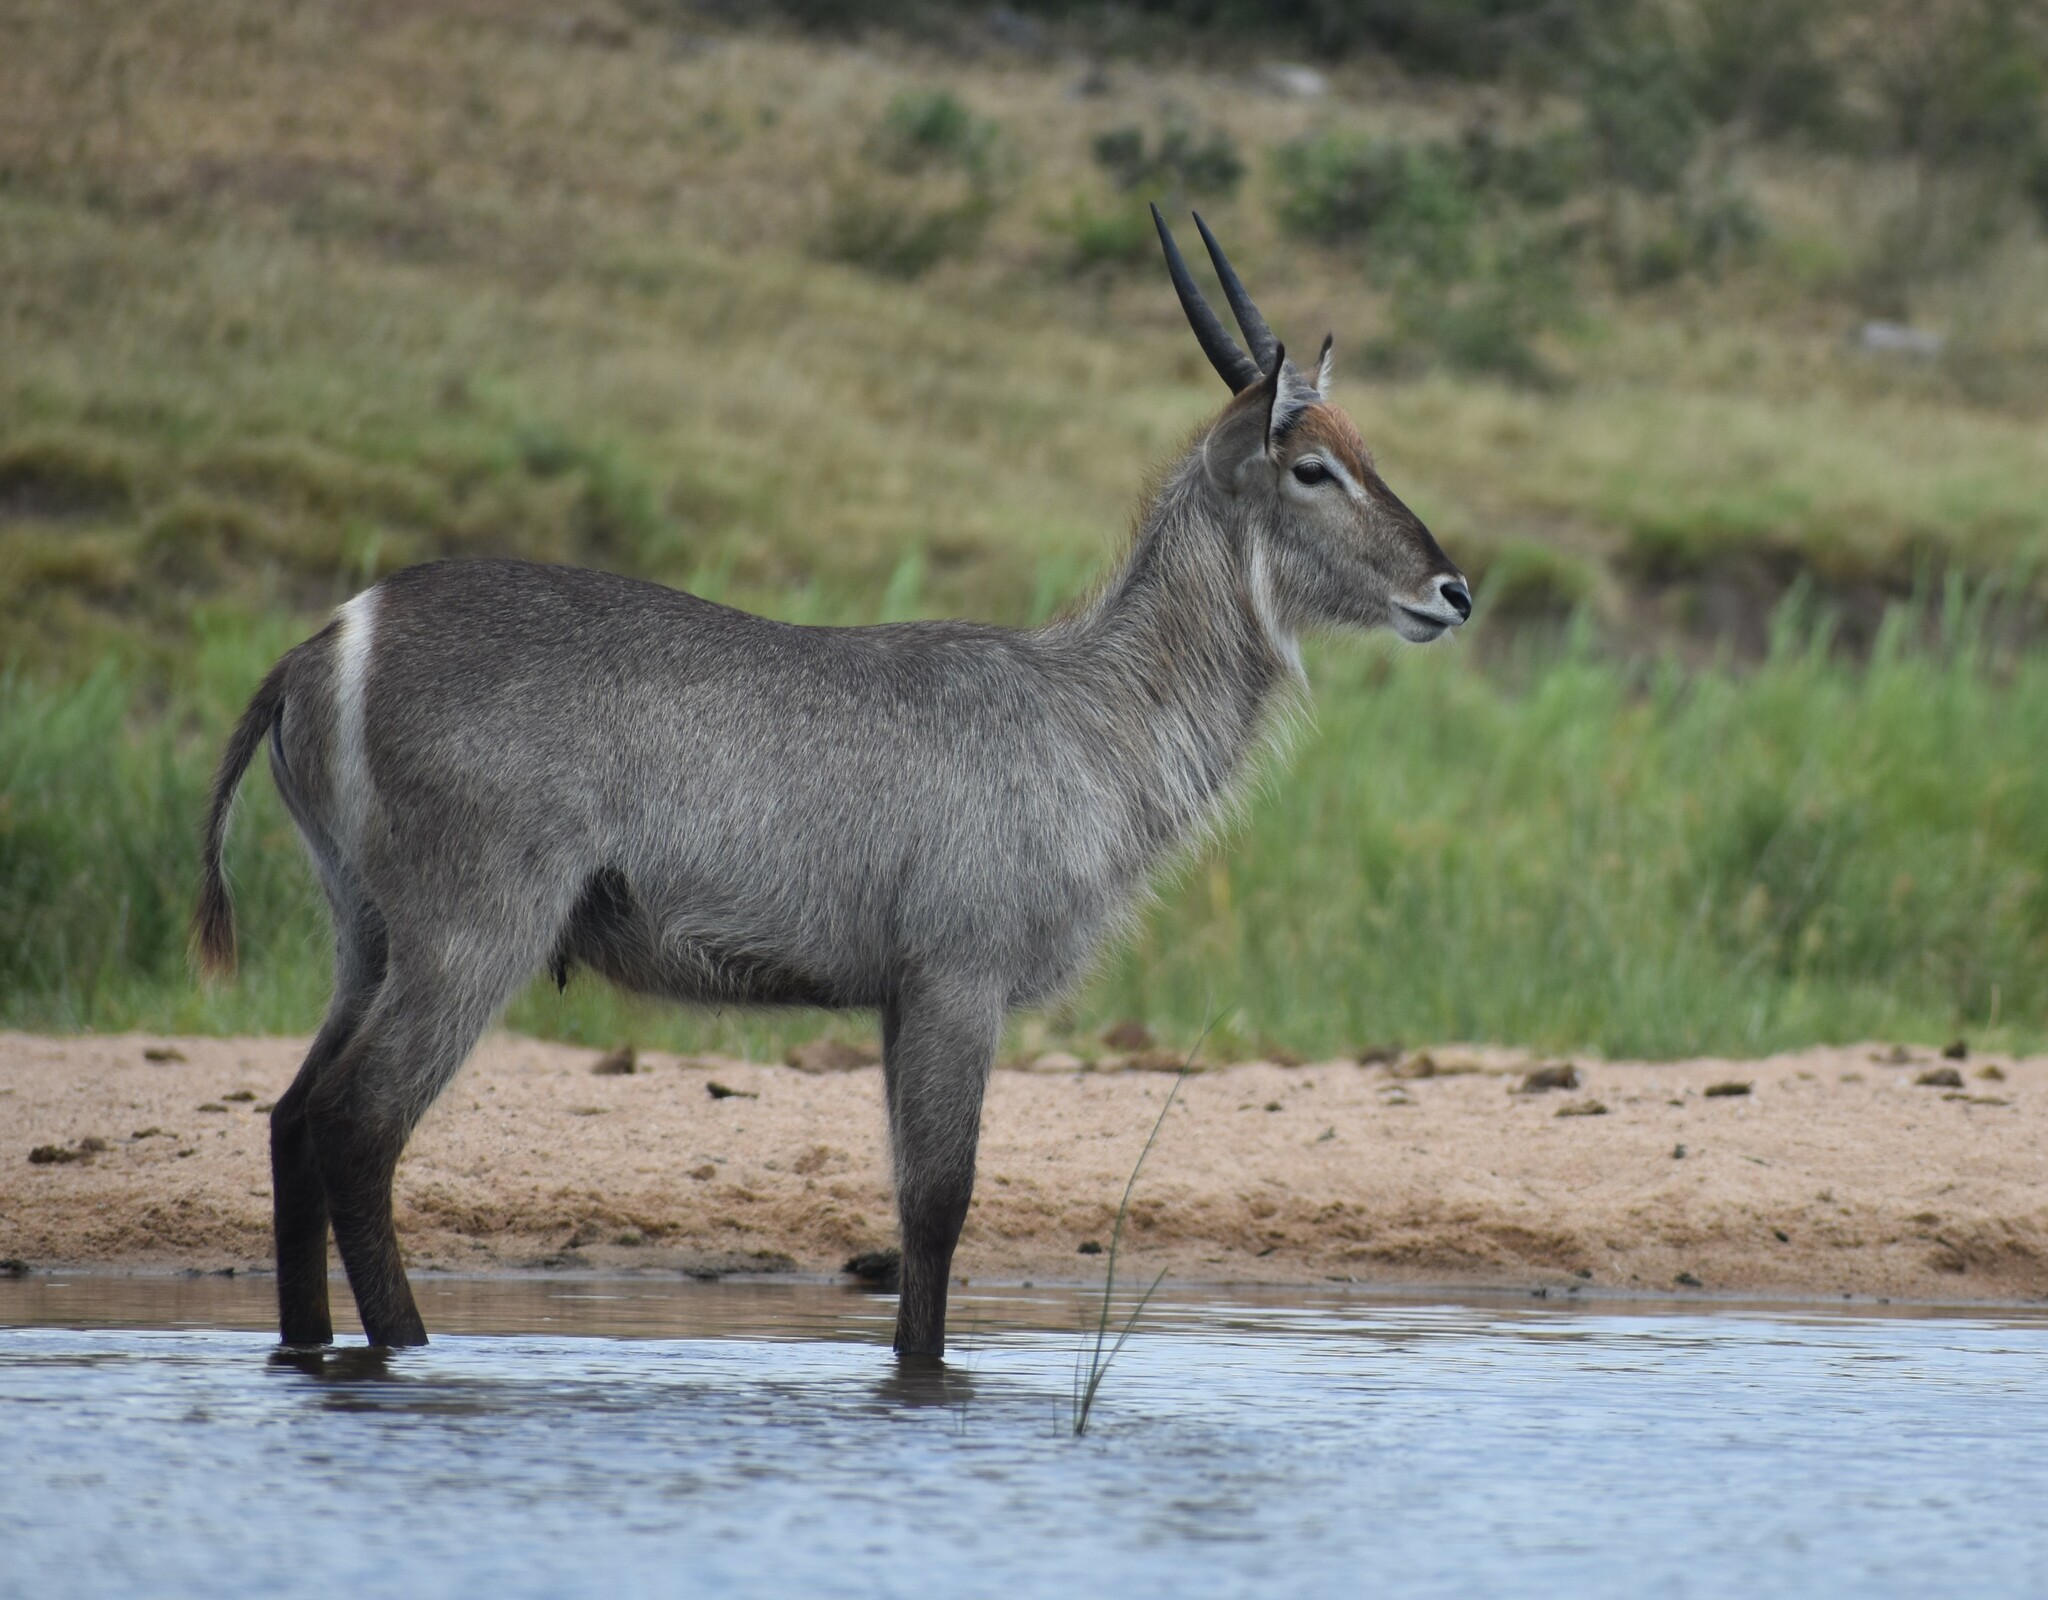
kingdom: Animalia
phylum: Chordata
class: Mammalia
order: Artiodactyla
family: Bovidae
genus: Kobus
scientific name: Kobus ellipsiprymnus
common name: Waterbuck
